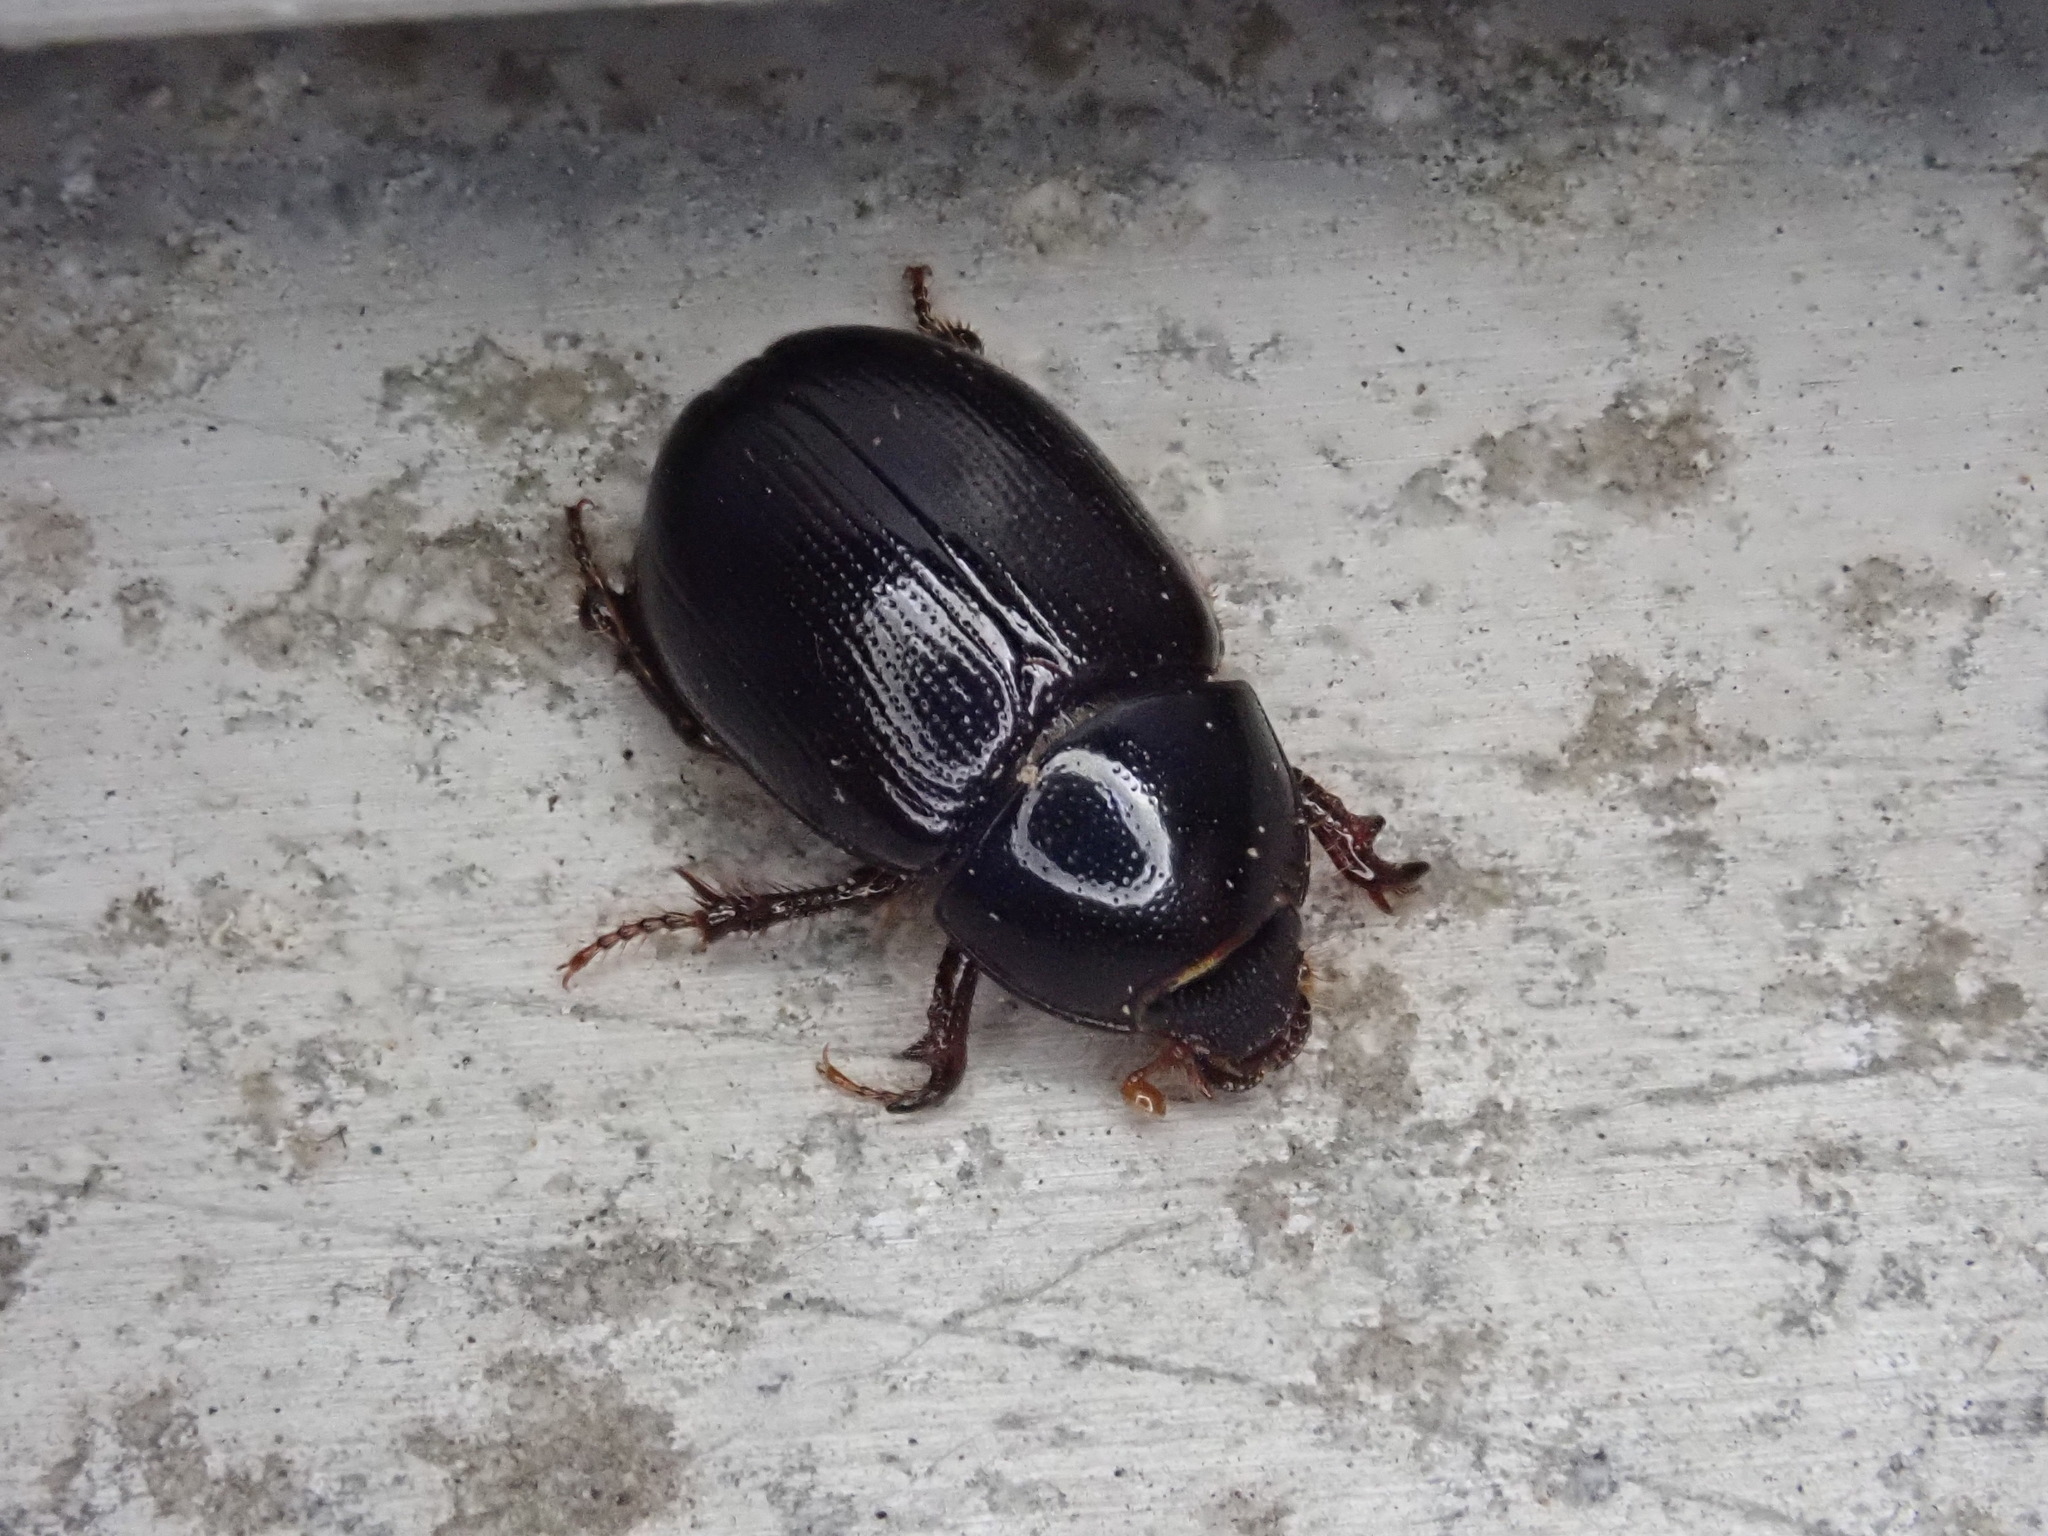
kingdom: Animalia
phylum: Arthropoda
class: Insecta
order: Coleoptera
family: Hybosoridae
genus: Hybosorus
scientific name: Hybosorus illigeri
